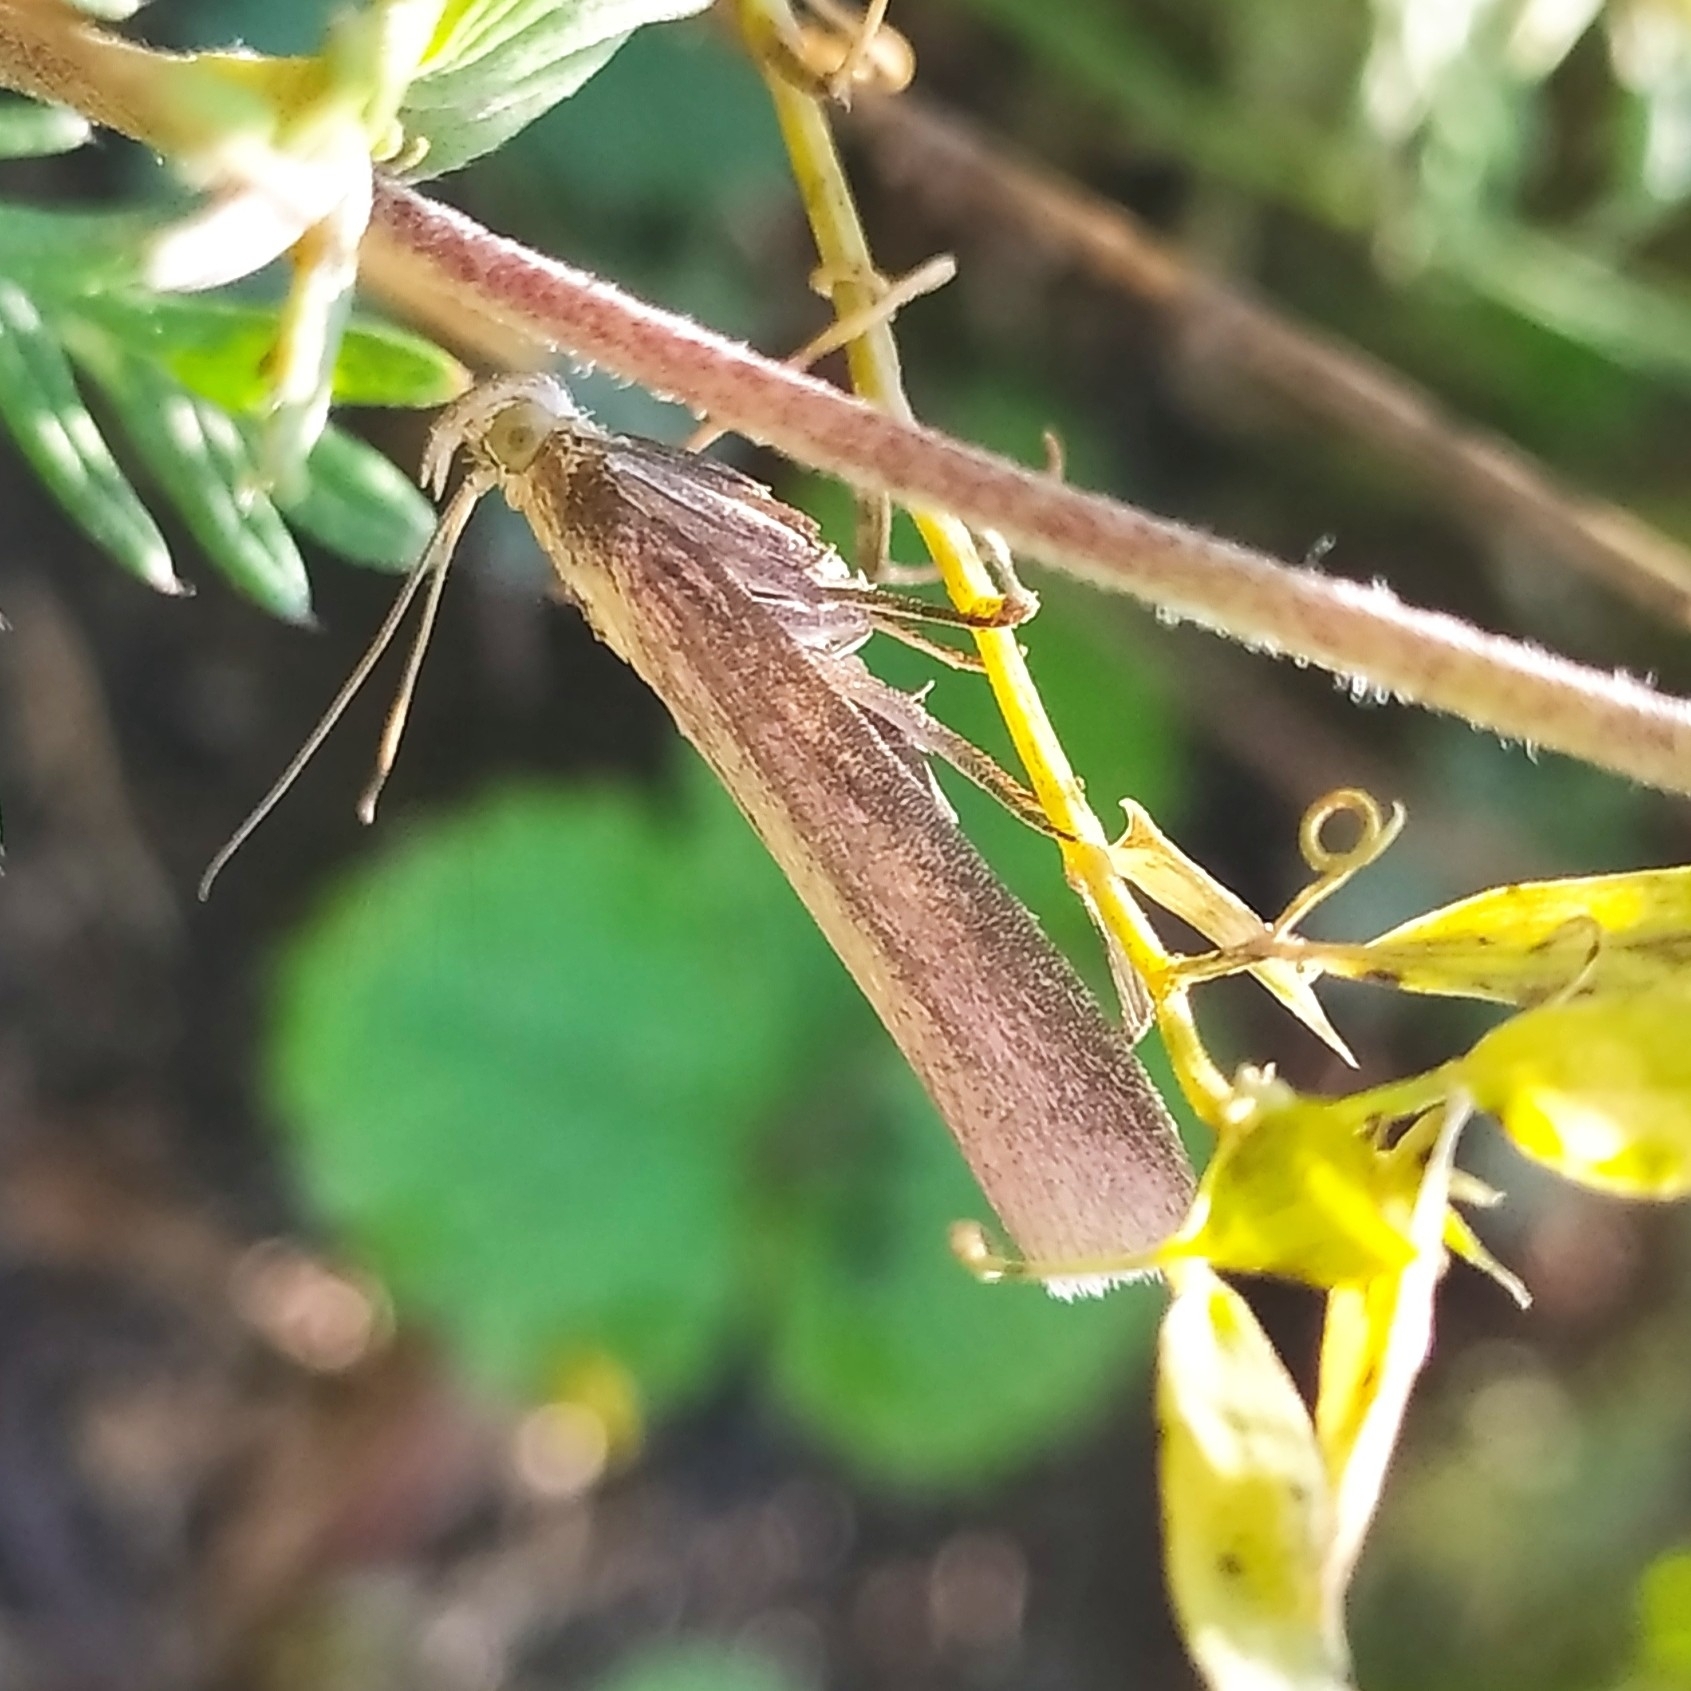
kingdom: Animalia
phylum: Arthropoda
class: Insecta
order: Lepidoptera
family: Pyralidae
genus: Oncocera
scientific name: Oncocera semirubella
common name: Rosy-striped knot-horn
